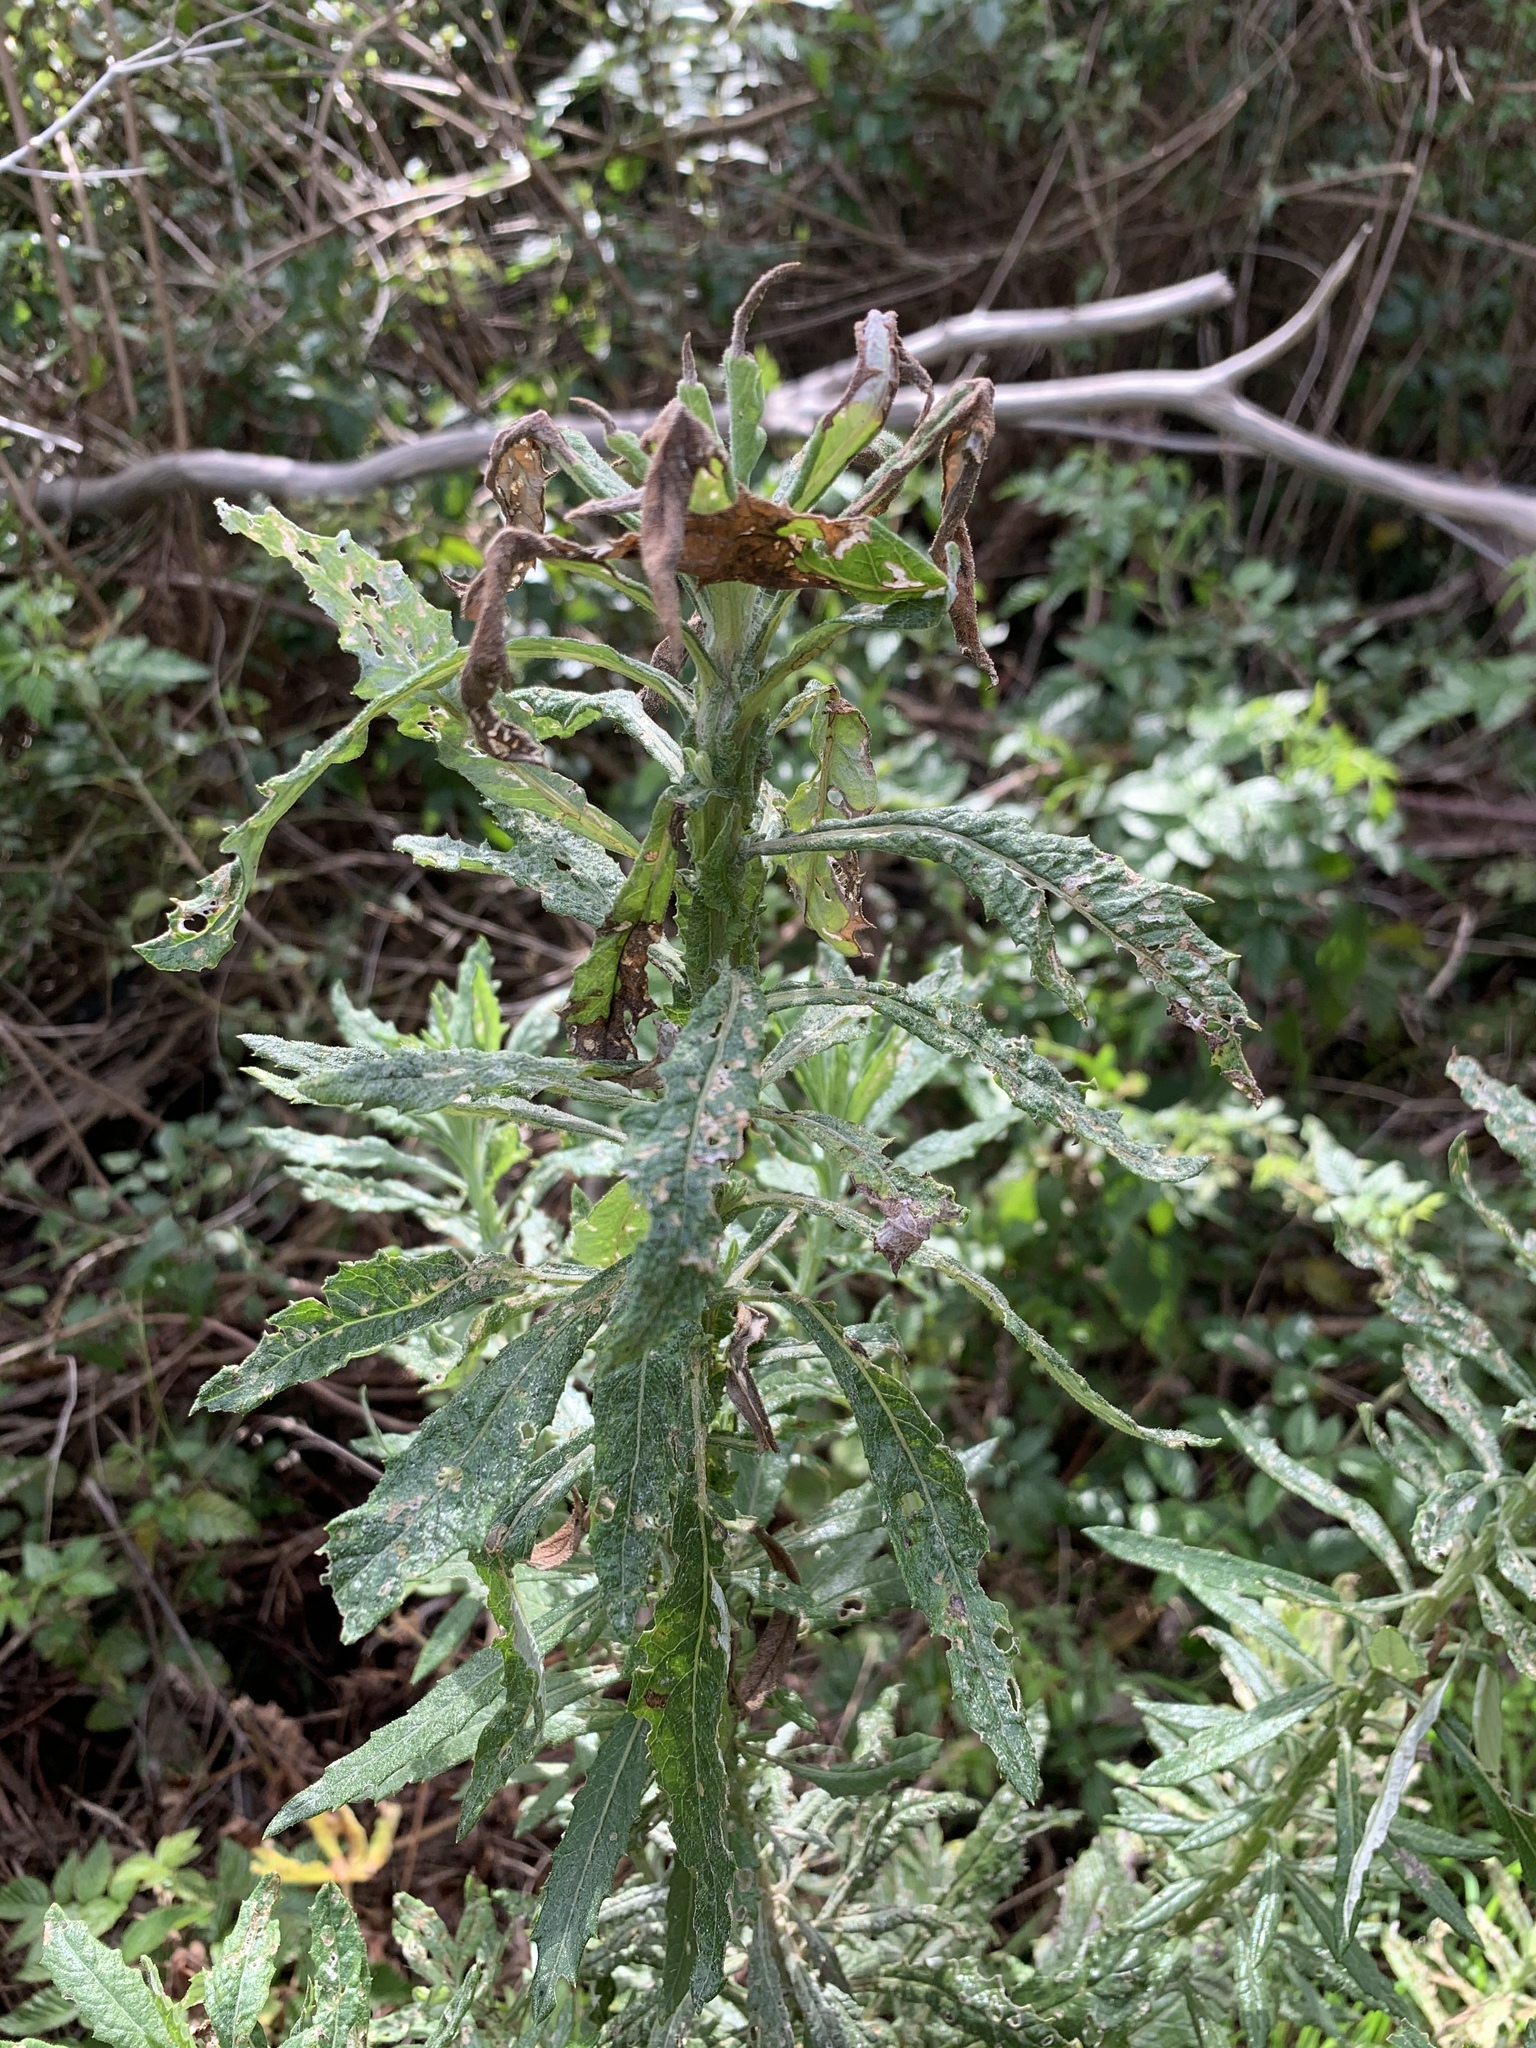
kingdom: Plantae
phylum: Tracheophyta
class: Magnoliopsida
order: Asterales
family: Asteraceae
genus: Senecio
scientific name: Senecio pterophorus
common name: Shoddy ragwort
